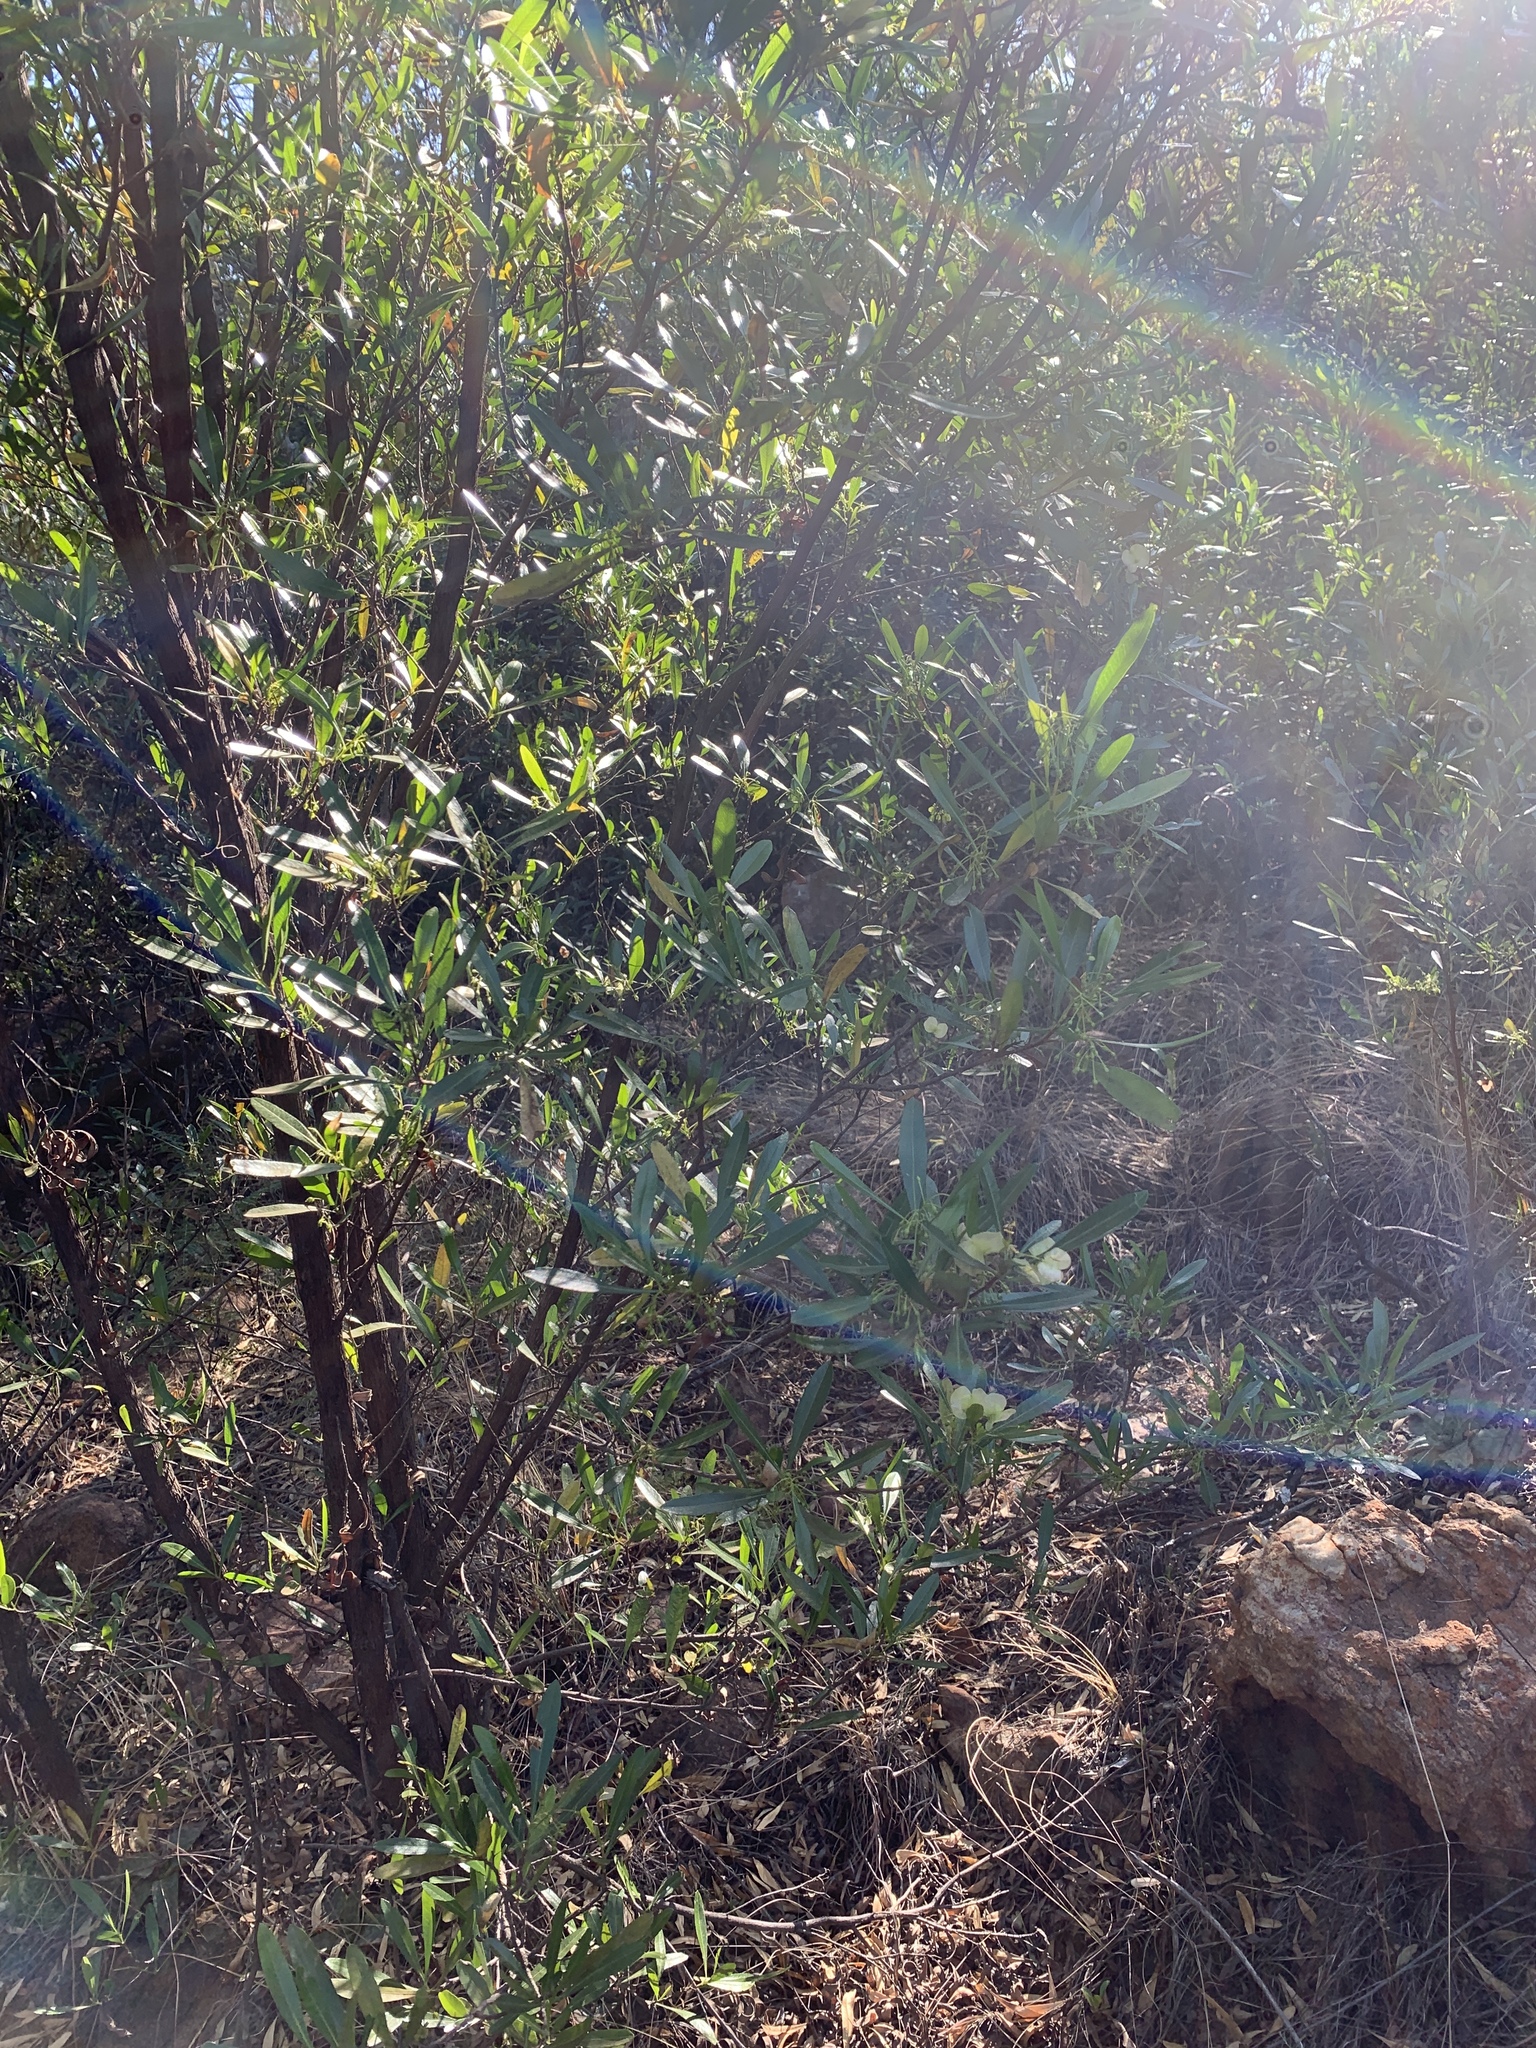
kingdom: Plantae
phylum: Tracheophyta
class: Magnoliopsida
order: Sapindales
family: Sapindaceae
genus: Dodonaea
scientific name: Dodonaea viscosa
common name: Hopbush
